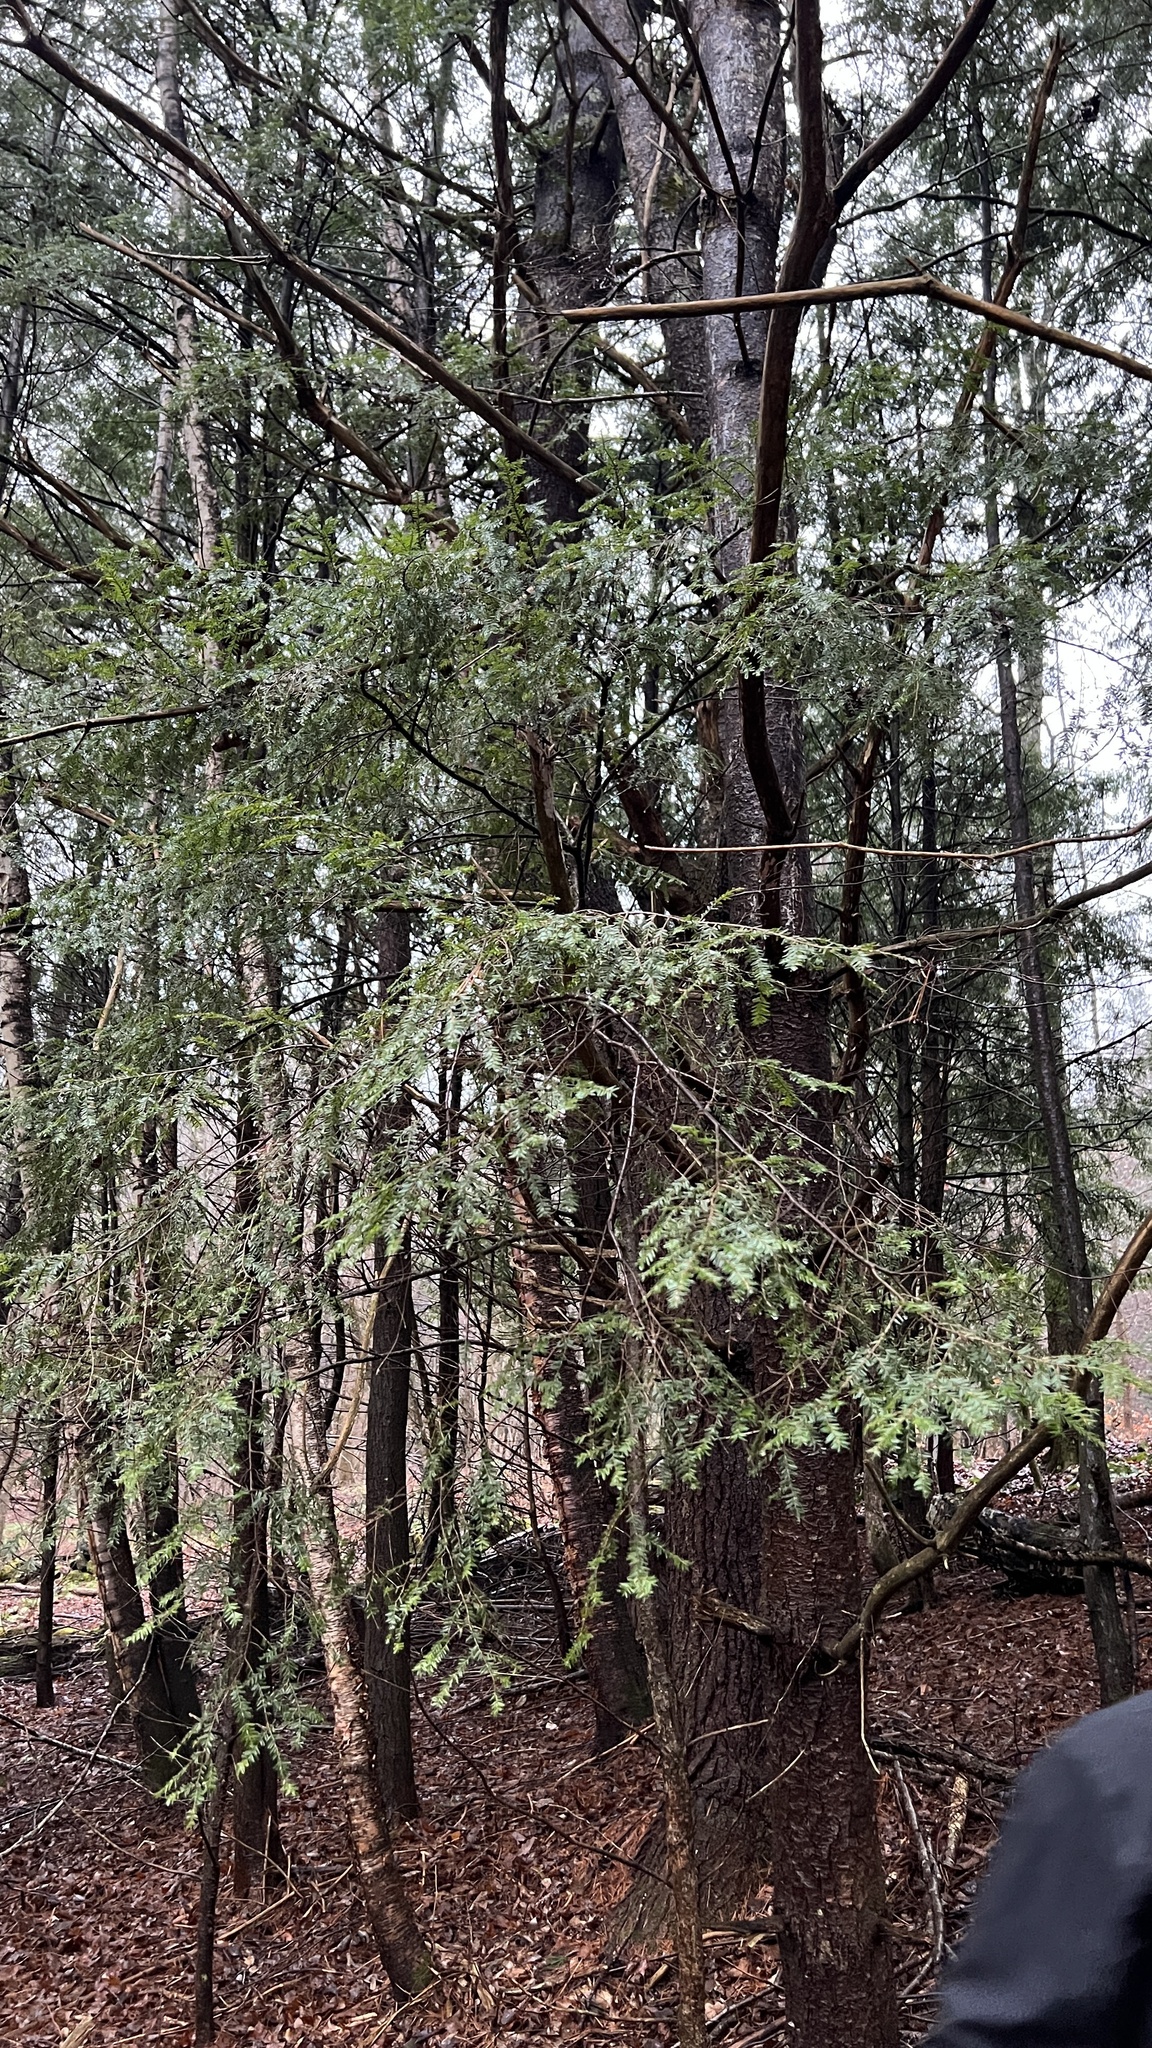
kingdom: Plantae
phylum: Tracheophyta
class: Pinopsida
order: Pinales
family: Pinaceae
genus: Tsuga
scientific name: Tsuga canadensis
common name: Eastern hemlock
